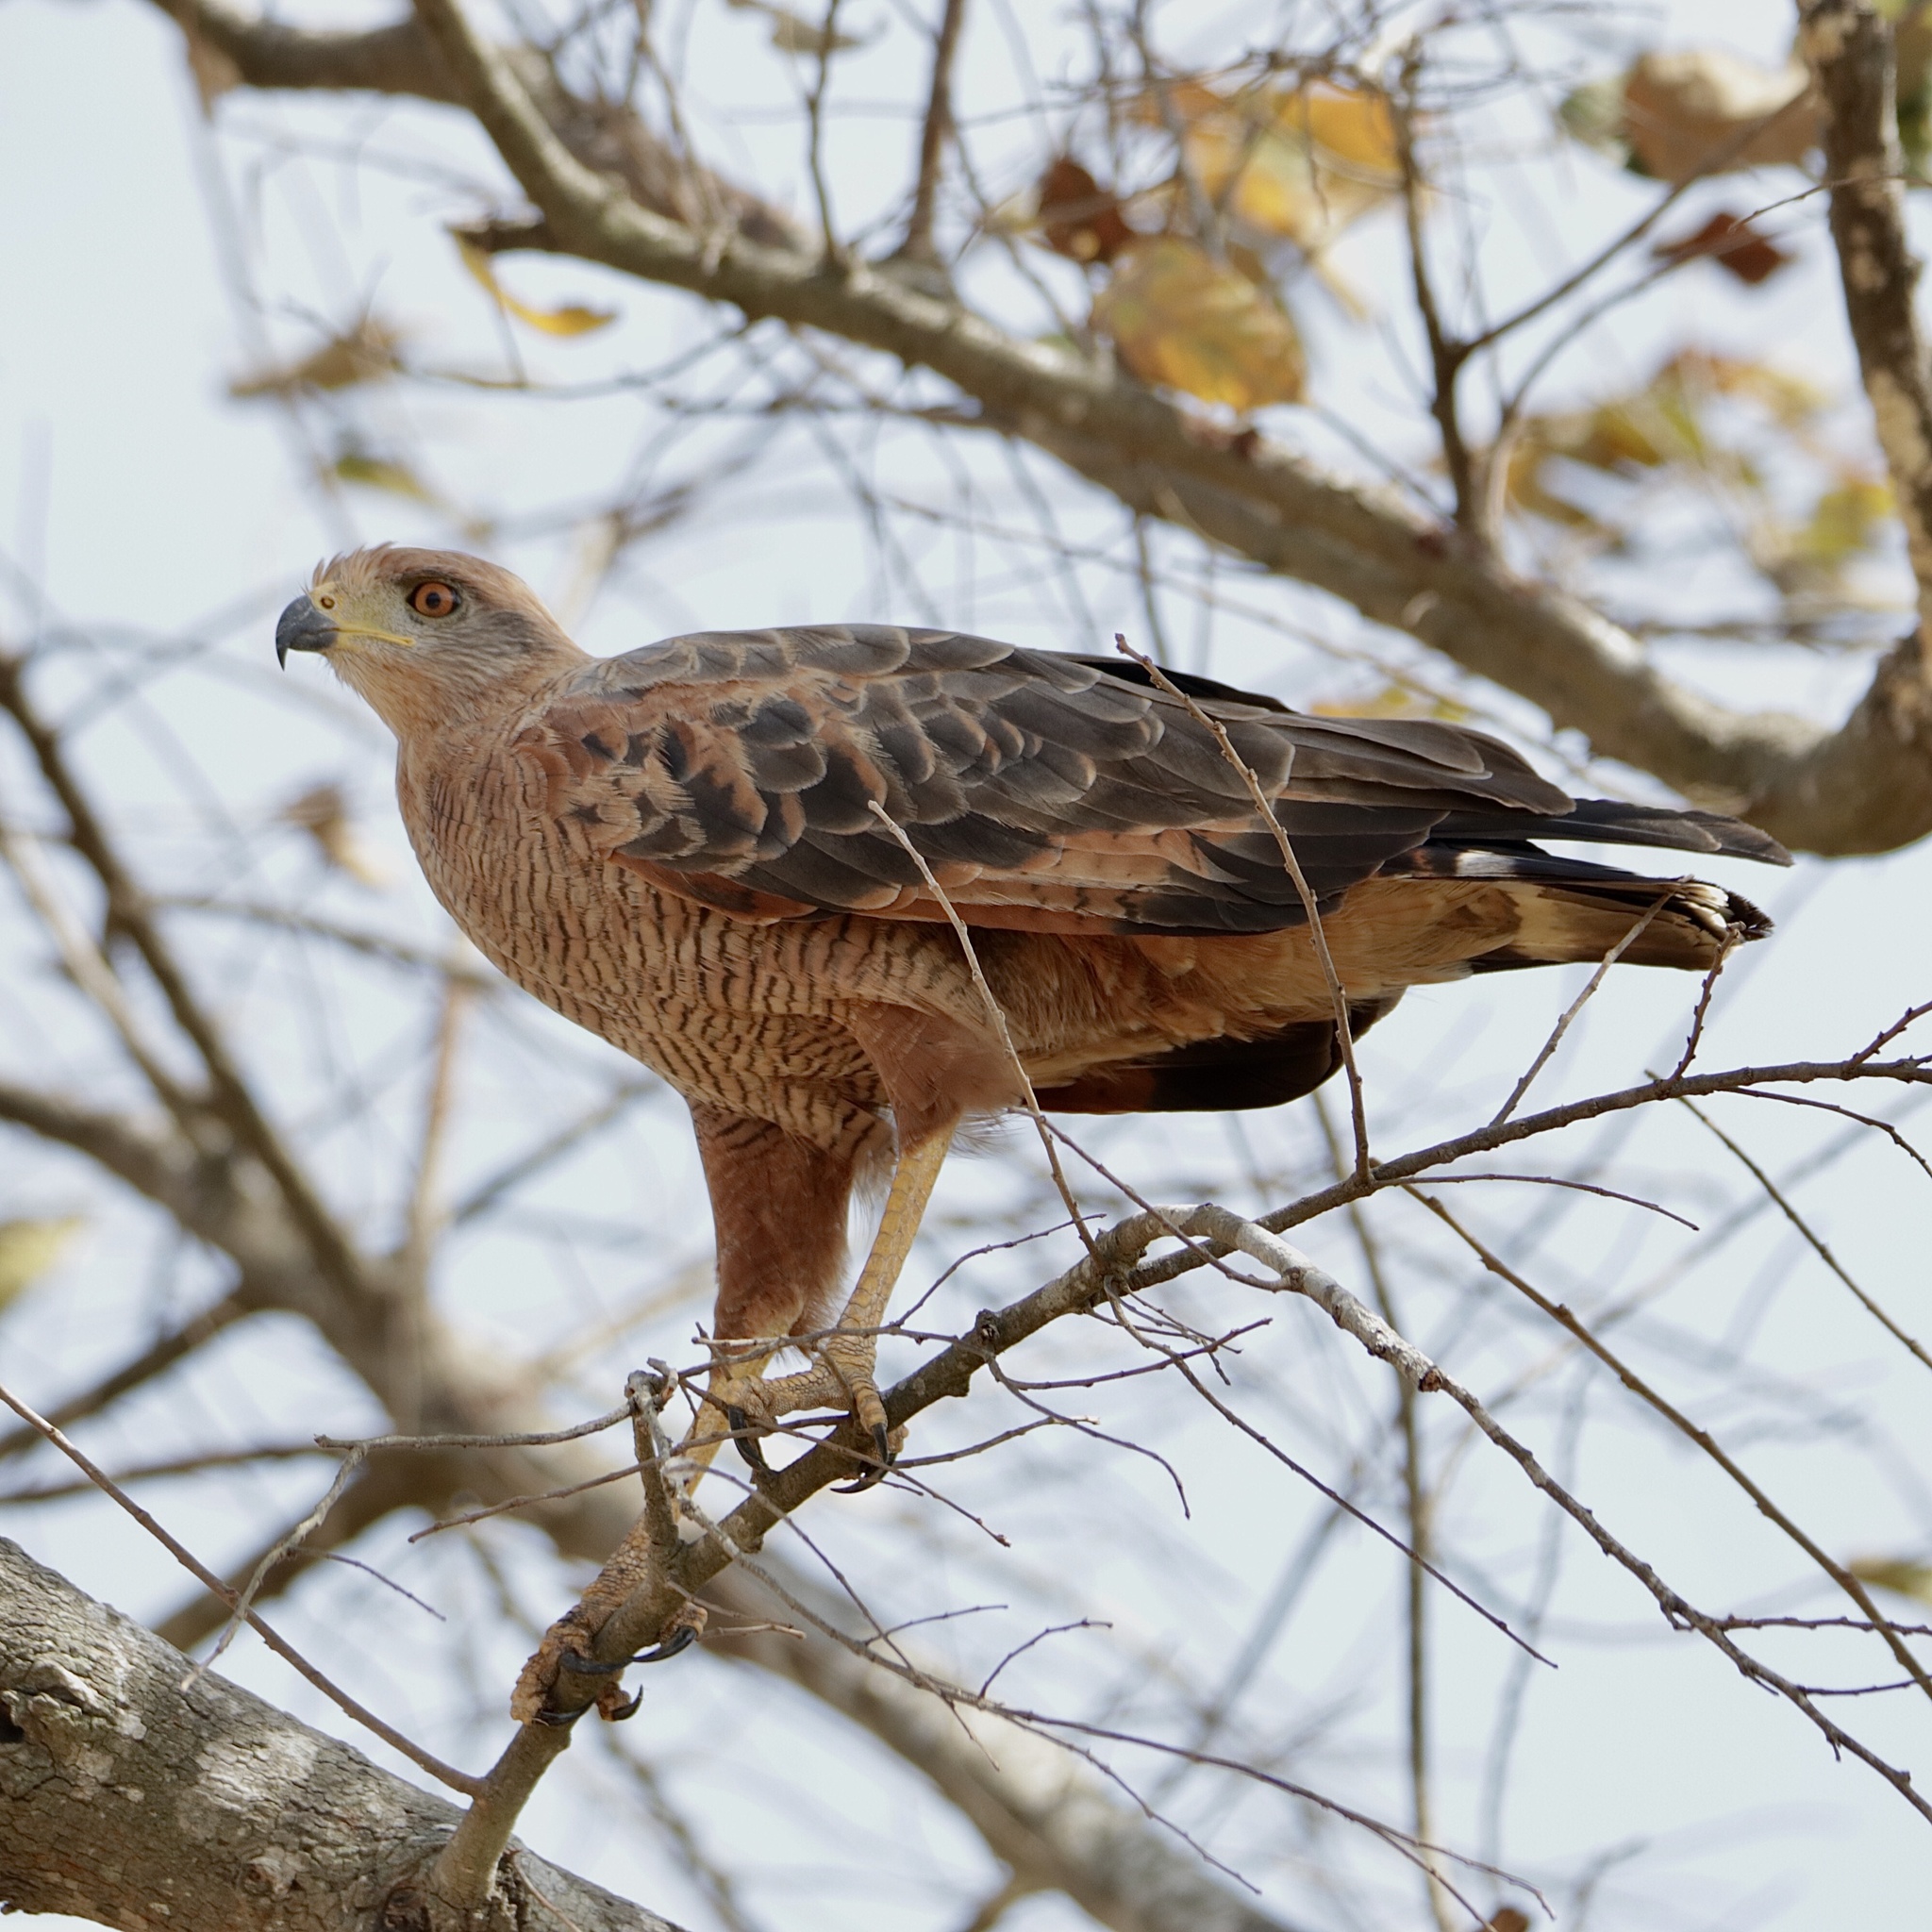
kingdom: Animalia
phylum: Chordata
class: Aves
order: Accipitriformes
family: Accipitridae
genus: Buteogallus
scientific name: Buteogallus meridionalis
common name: Savanna hawk
